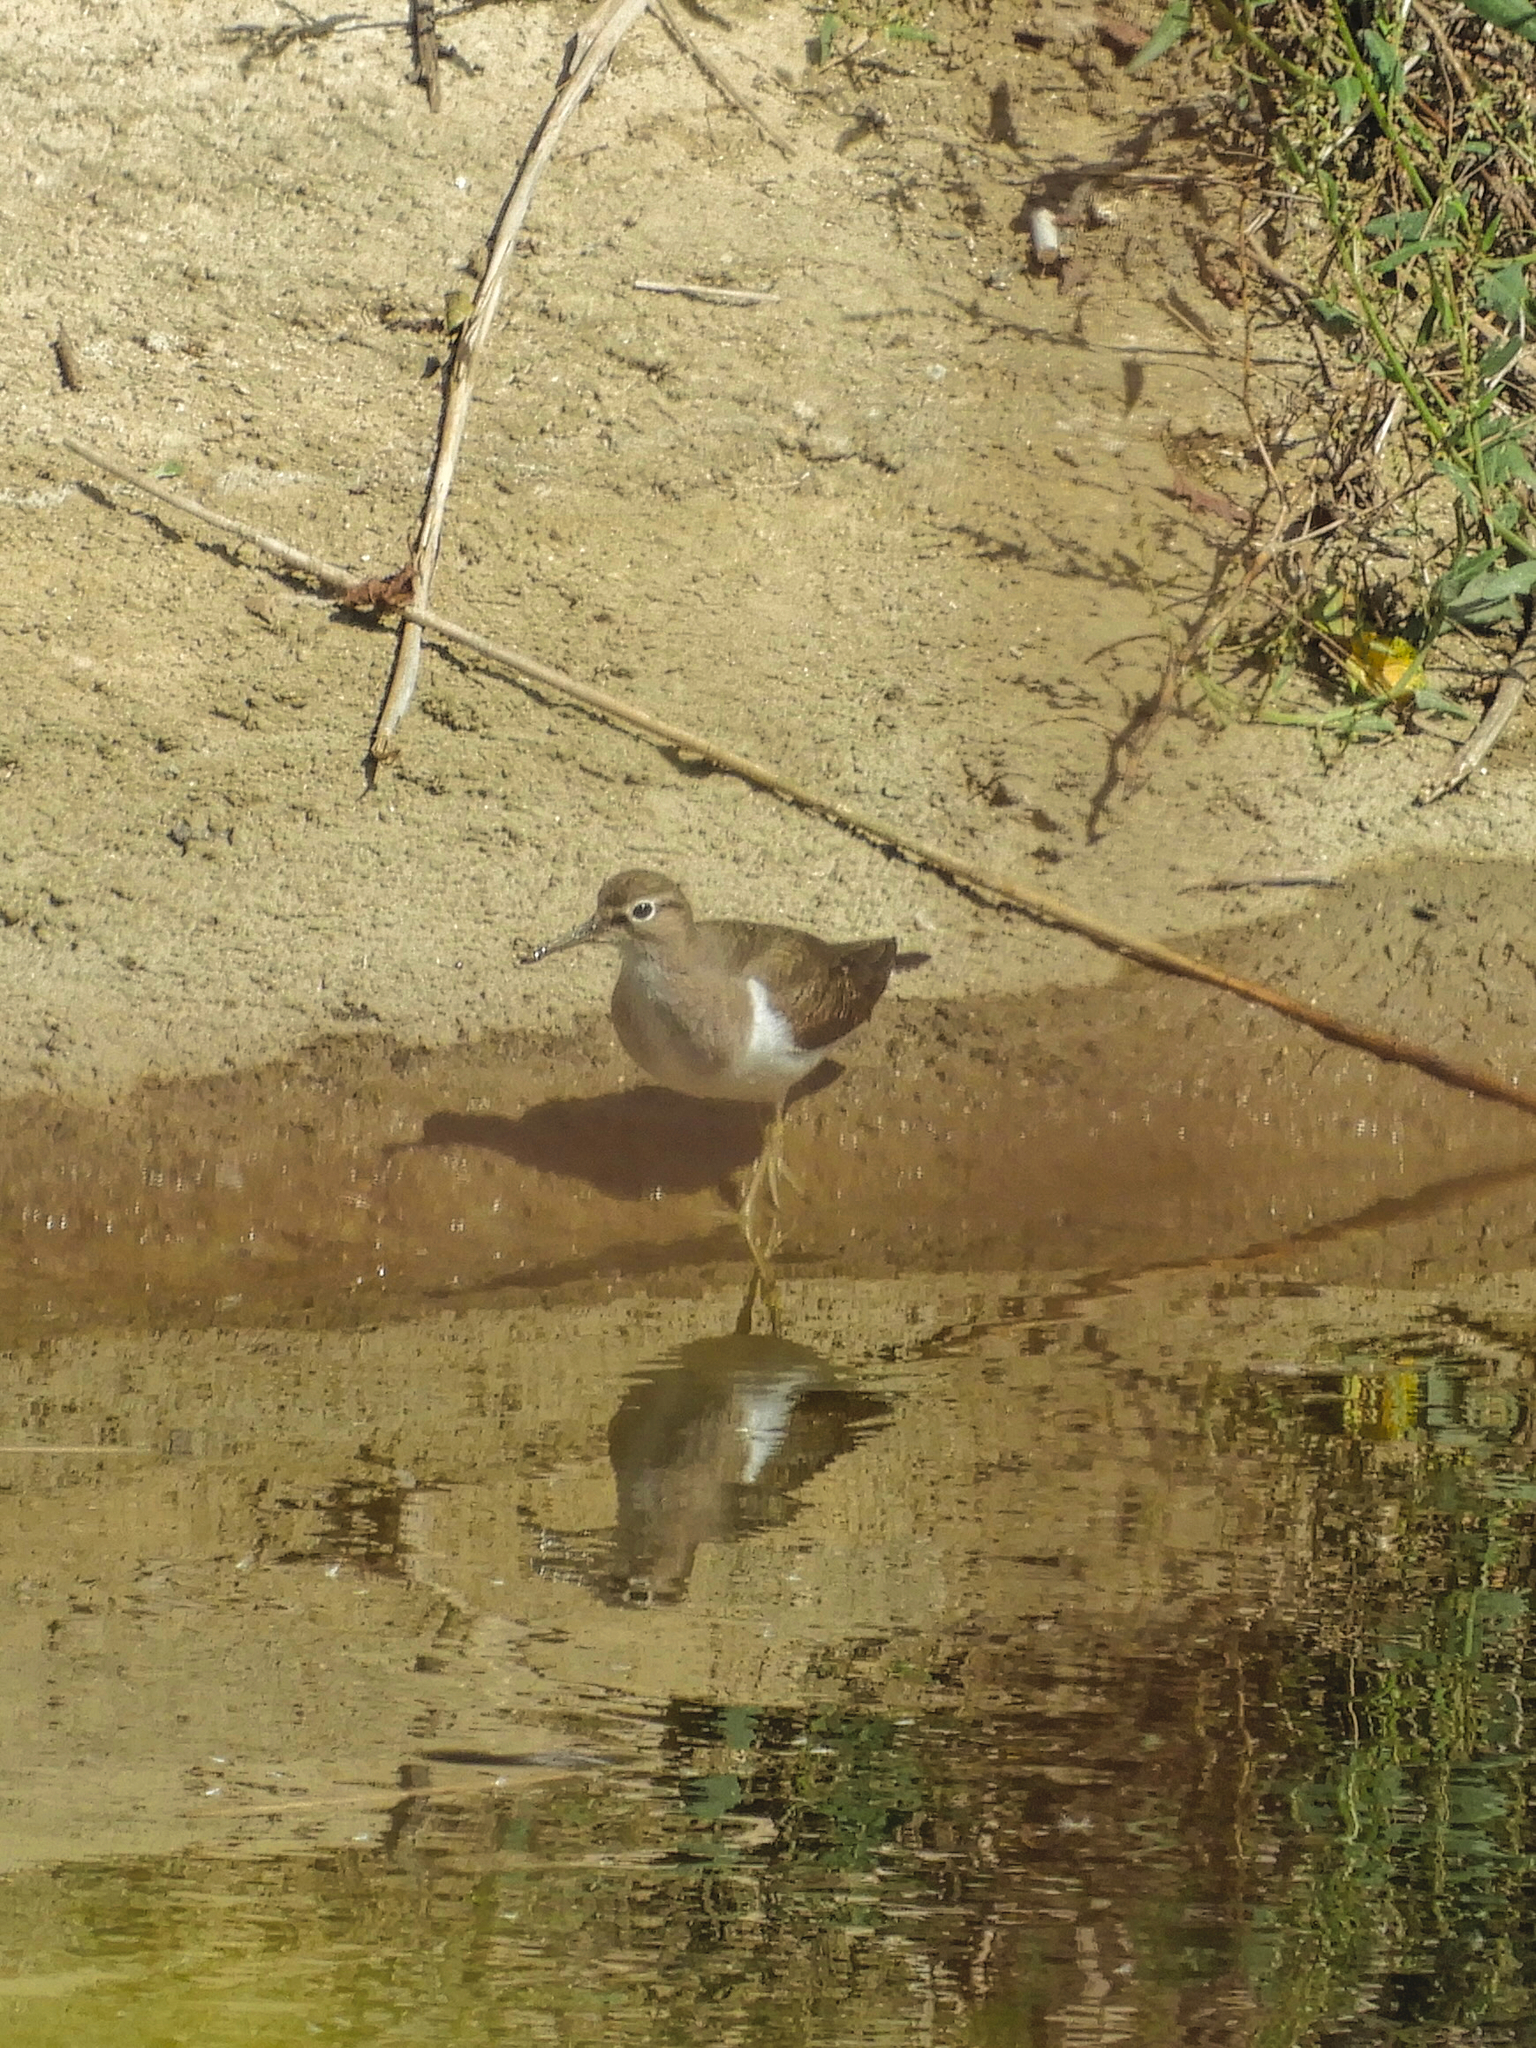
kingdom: Animalia
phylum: Chordata
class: Aves
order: Charadriiformes
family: Scolopacidae
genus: Actitis
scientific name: Actitis hypoleucos
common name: Common sandpiper
